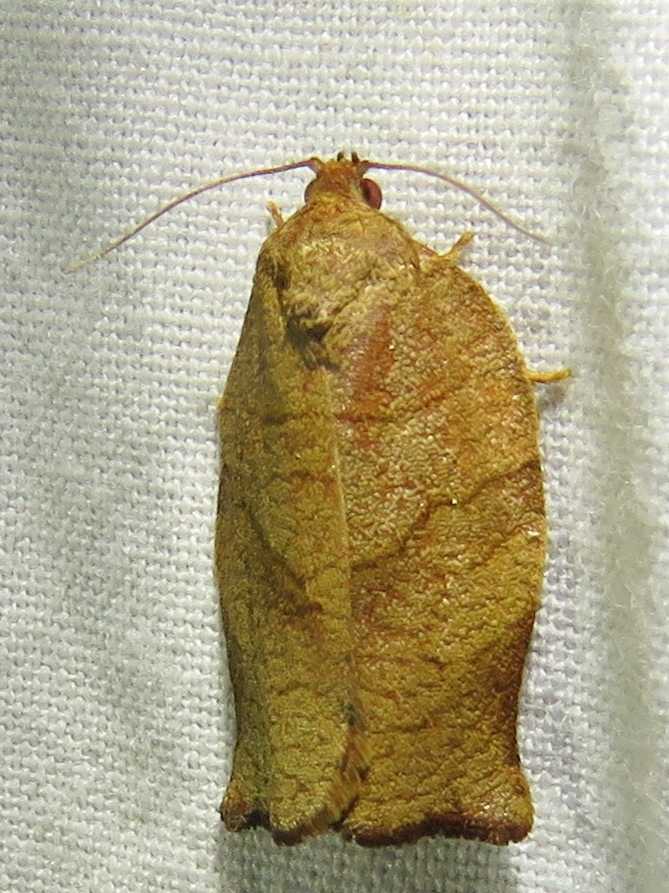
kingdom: Animalia
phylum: Arthropoda
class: Insecta
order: Lepidoptera
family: Tortricidae
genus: Choristoneura
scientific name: Choristoneura rosaceana
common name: Oblique-banded leafroller moth
